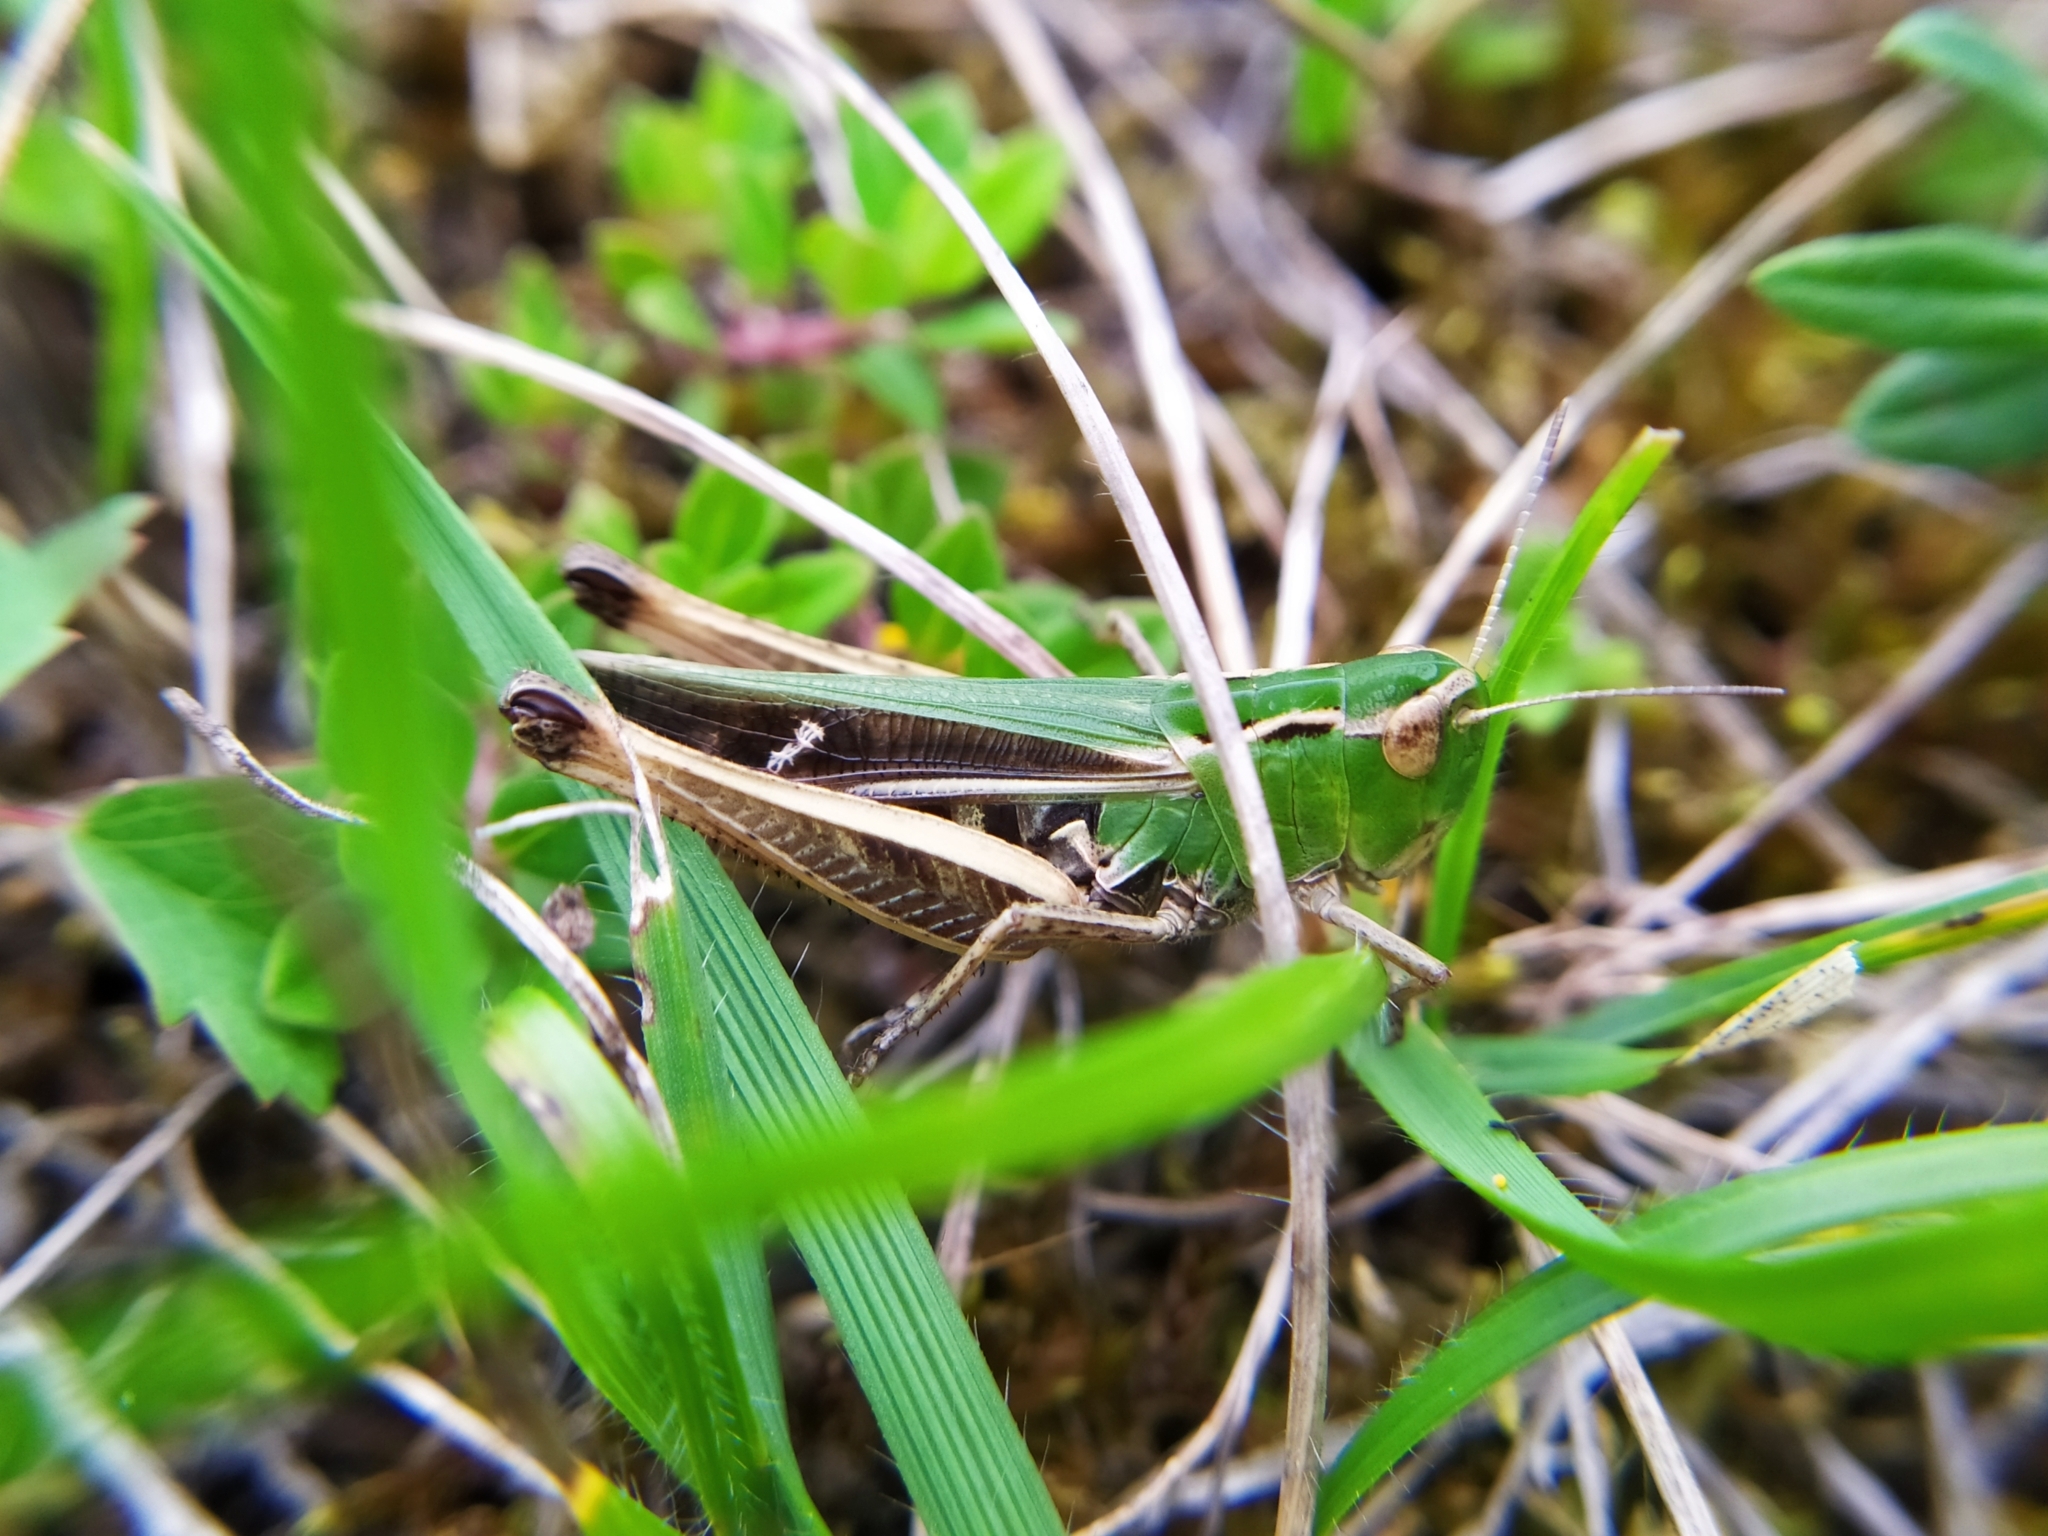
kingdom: Animalia
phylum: Arthropoda
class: Insecta
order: Orthoptera
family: Acrididae
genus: Stenobothrus
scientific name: Stenobothrus lineatus
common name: Stripe-winged grasshopper
